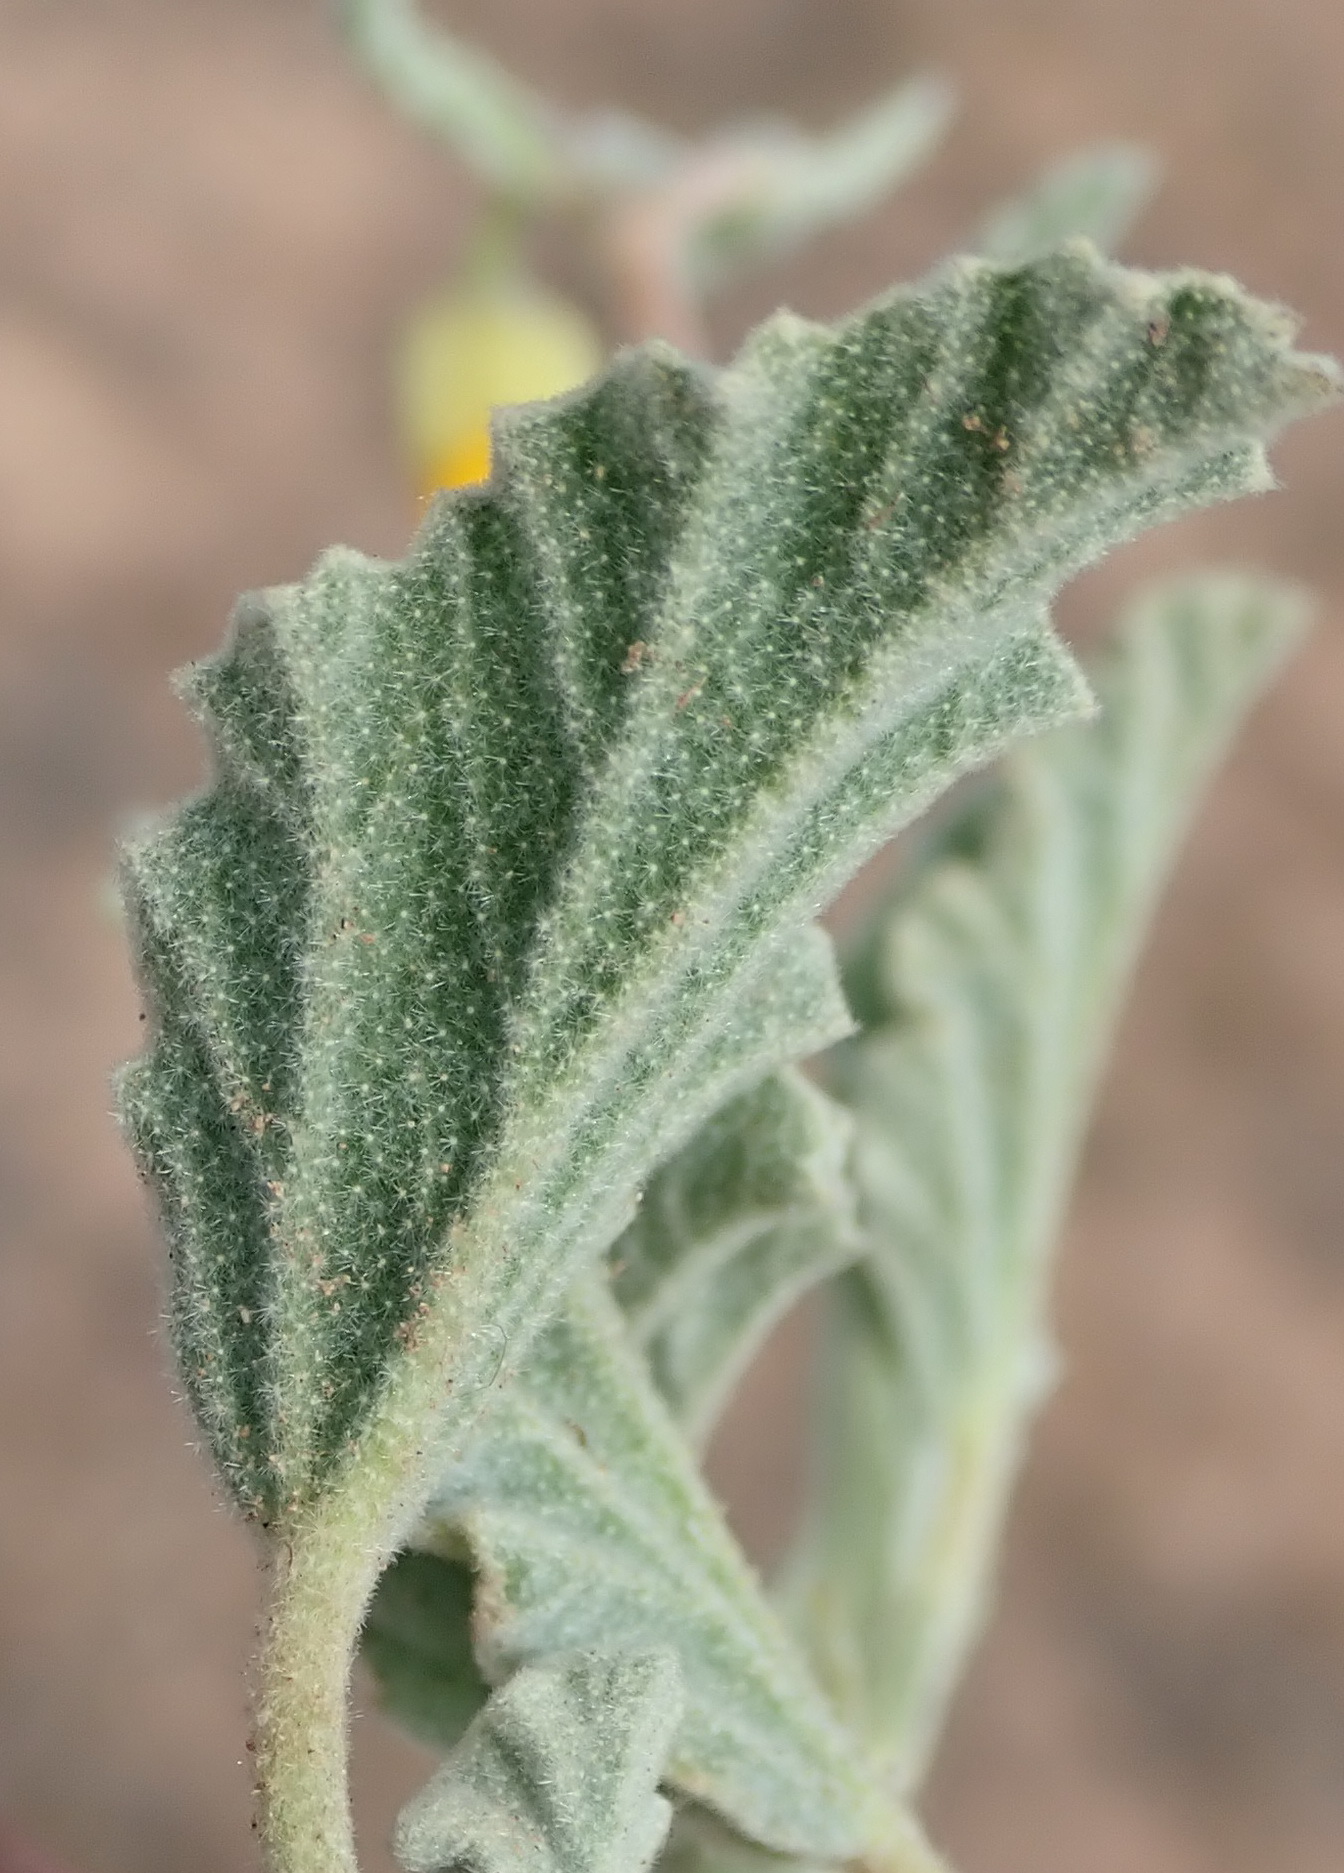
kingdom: Plantae
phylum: Tracheophyta
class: Magnoliopsida
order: Malvales
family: Malvaceae
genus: Hermannia
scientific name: Hermannia althaeifolia
